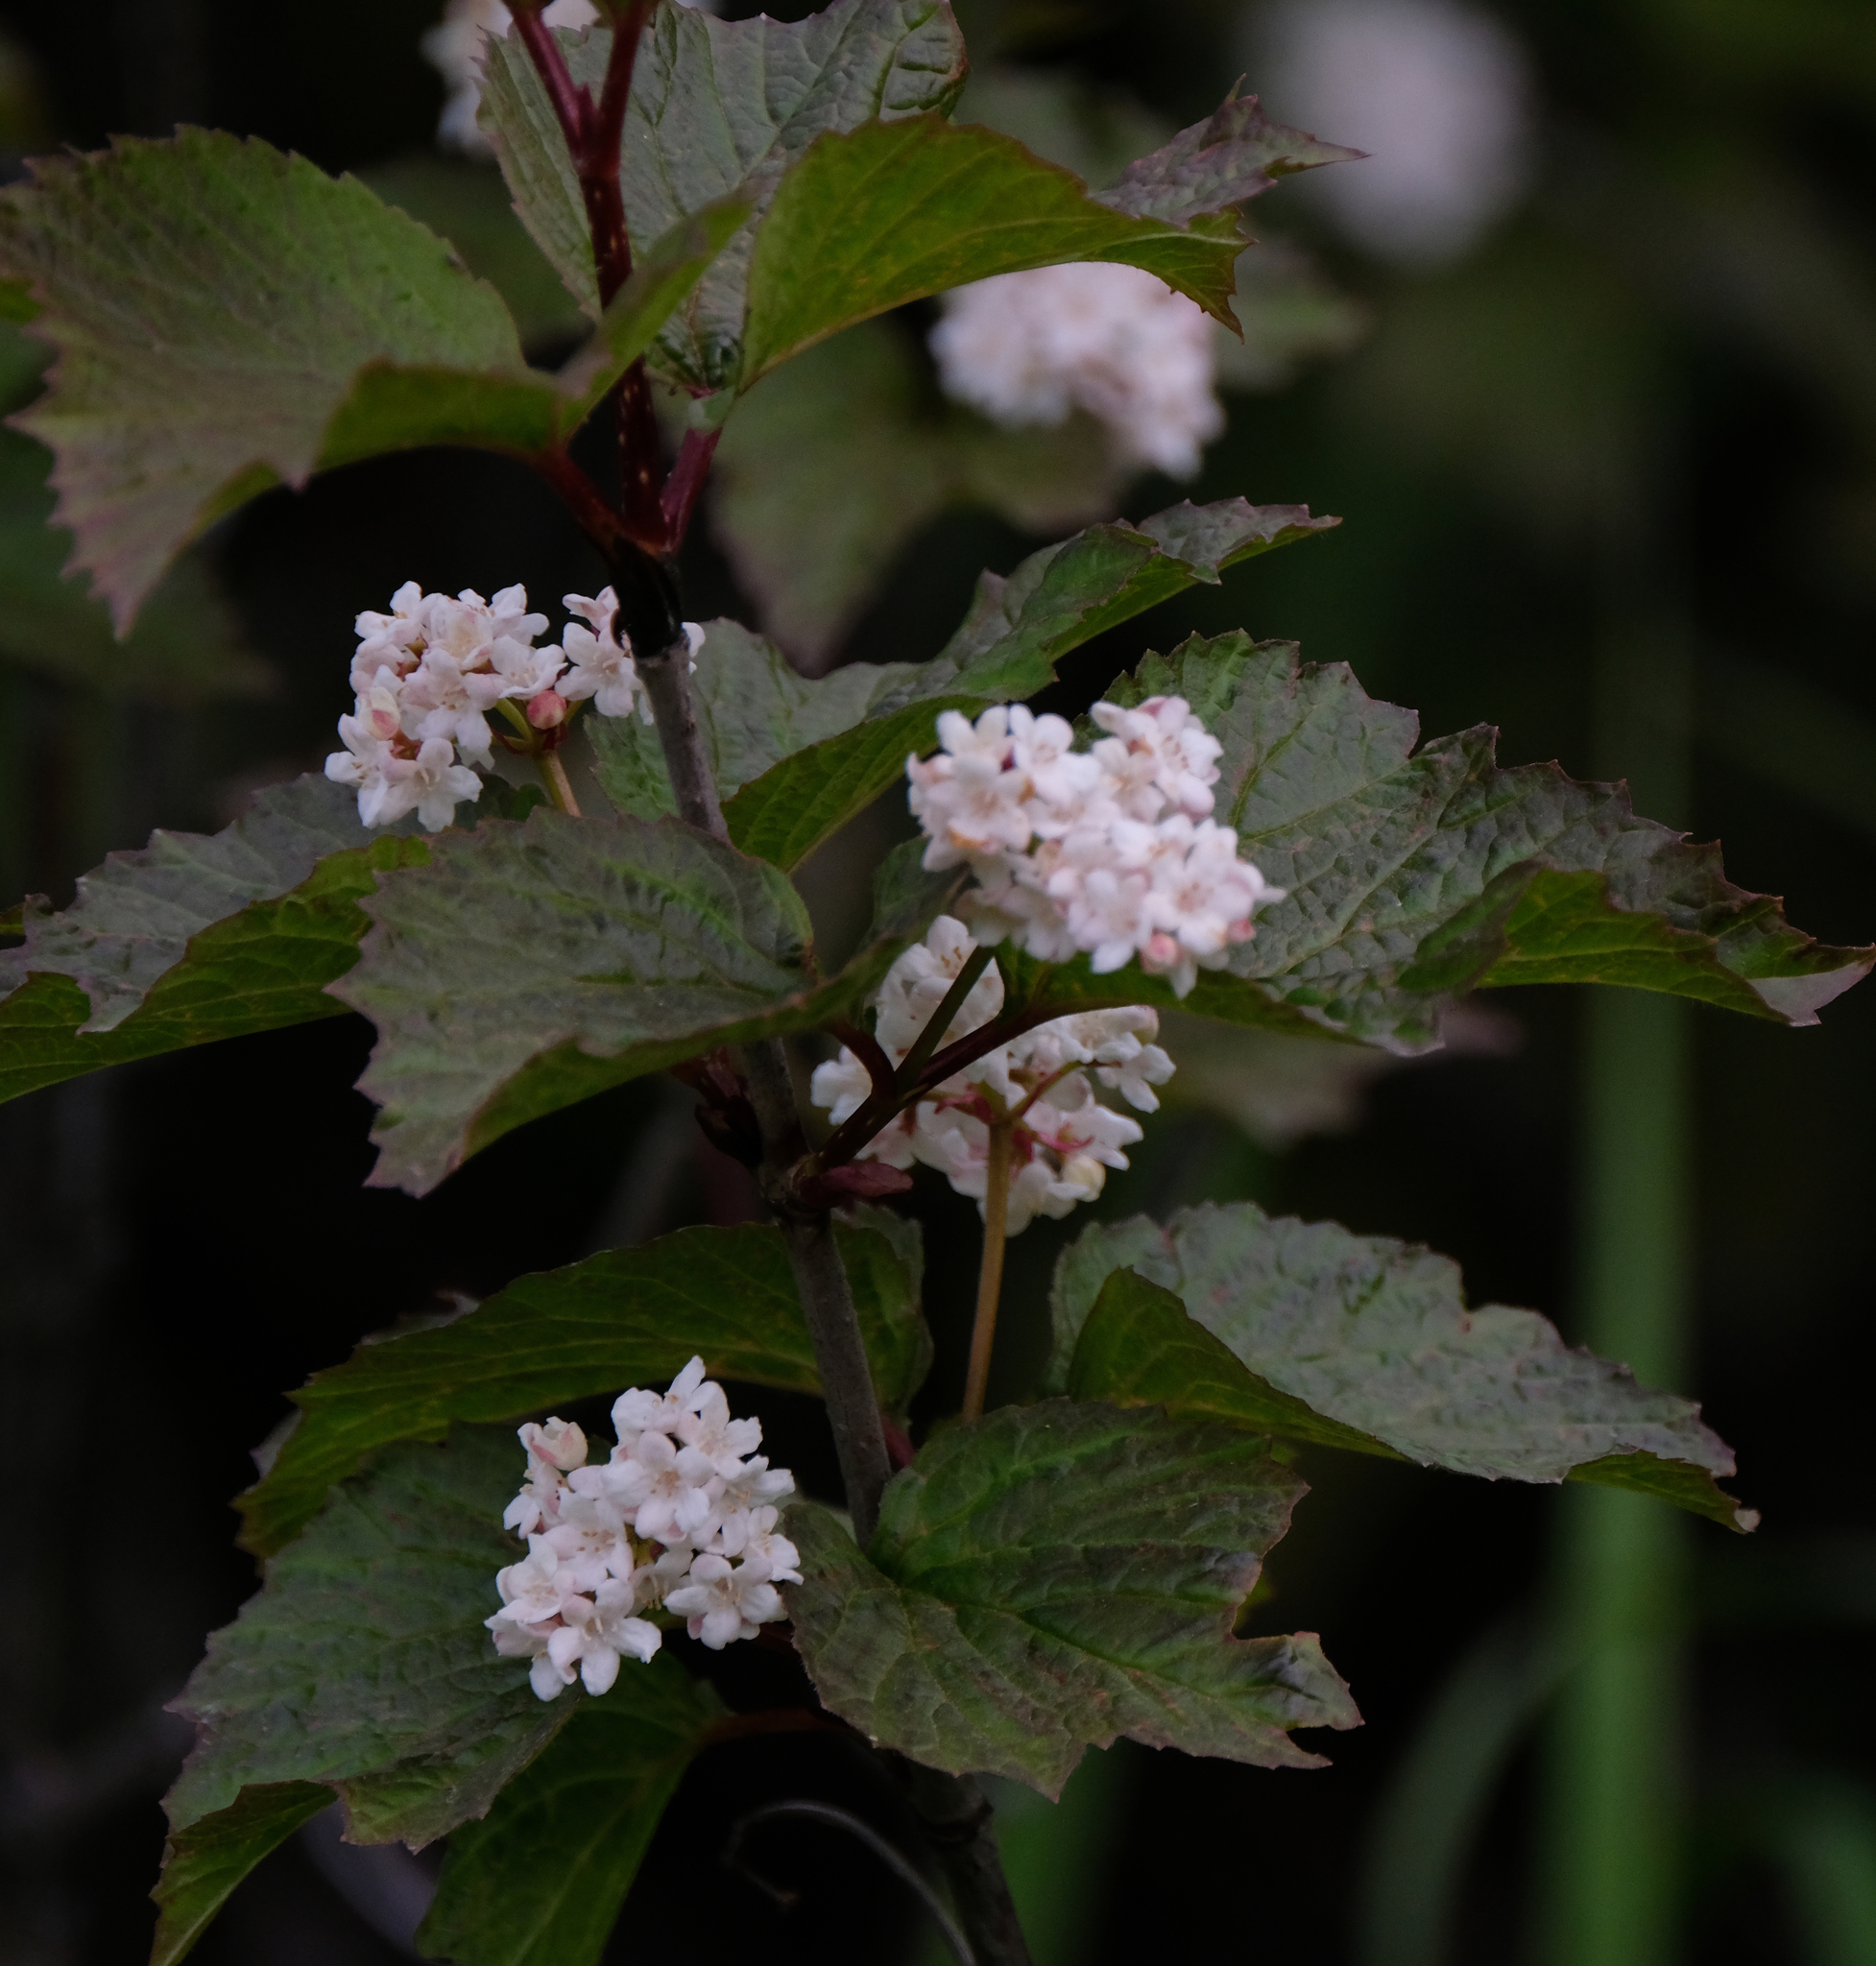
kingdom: Plantae
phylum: Tracheophyta
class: Magnoliopsida
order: Dipsacales
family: Viburnaceae
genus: Viburnum
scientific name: Viburnum edule
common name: Mooseberry
